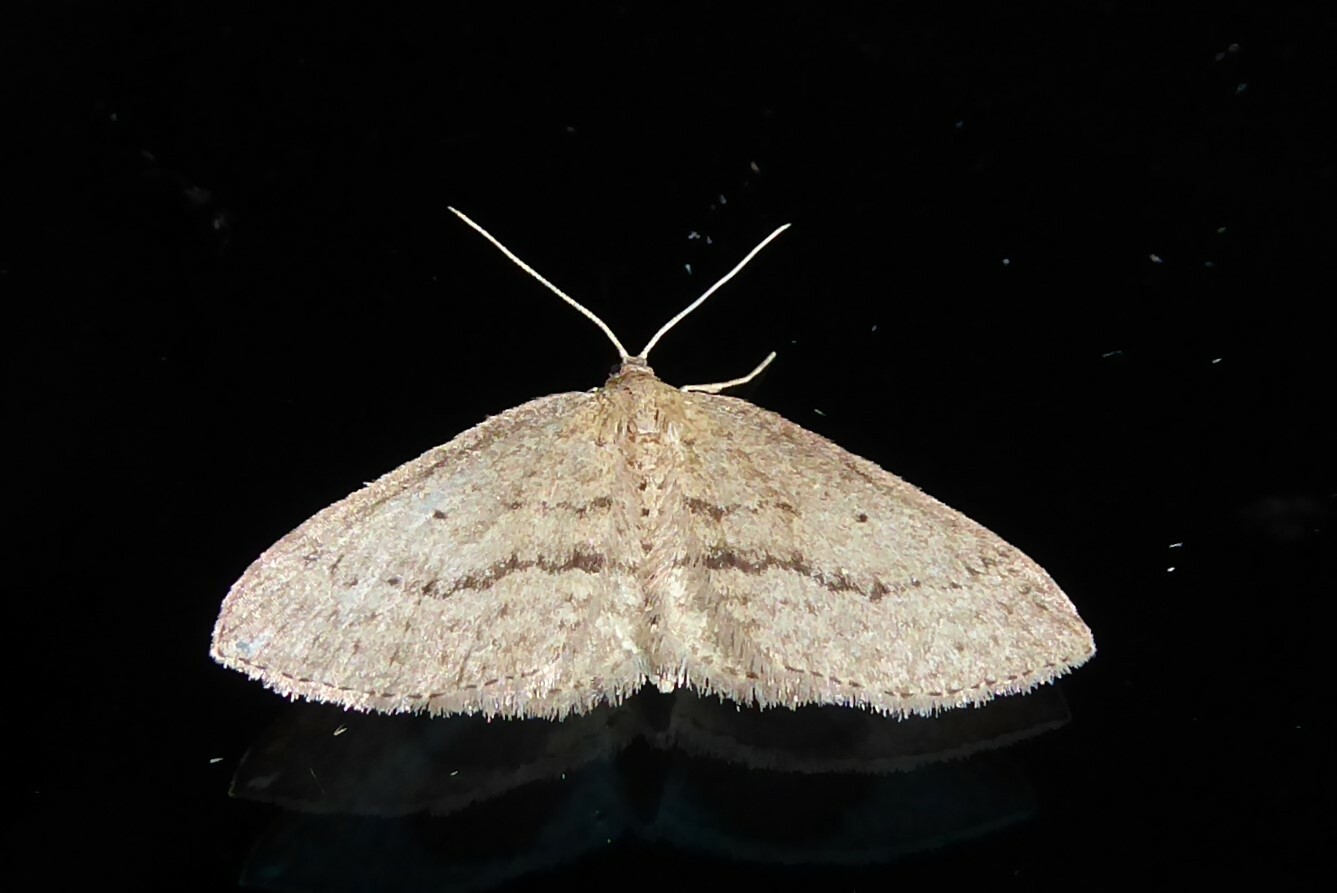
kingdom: Animalia
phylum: Arthropoda
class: Insecta
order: Lepidoptera
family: Geometridae
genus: Poecilasthena
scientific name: Poecilasthena schistaria
